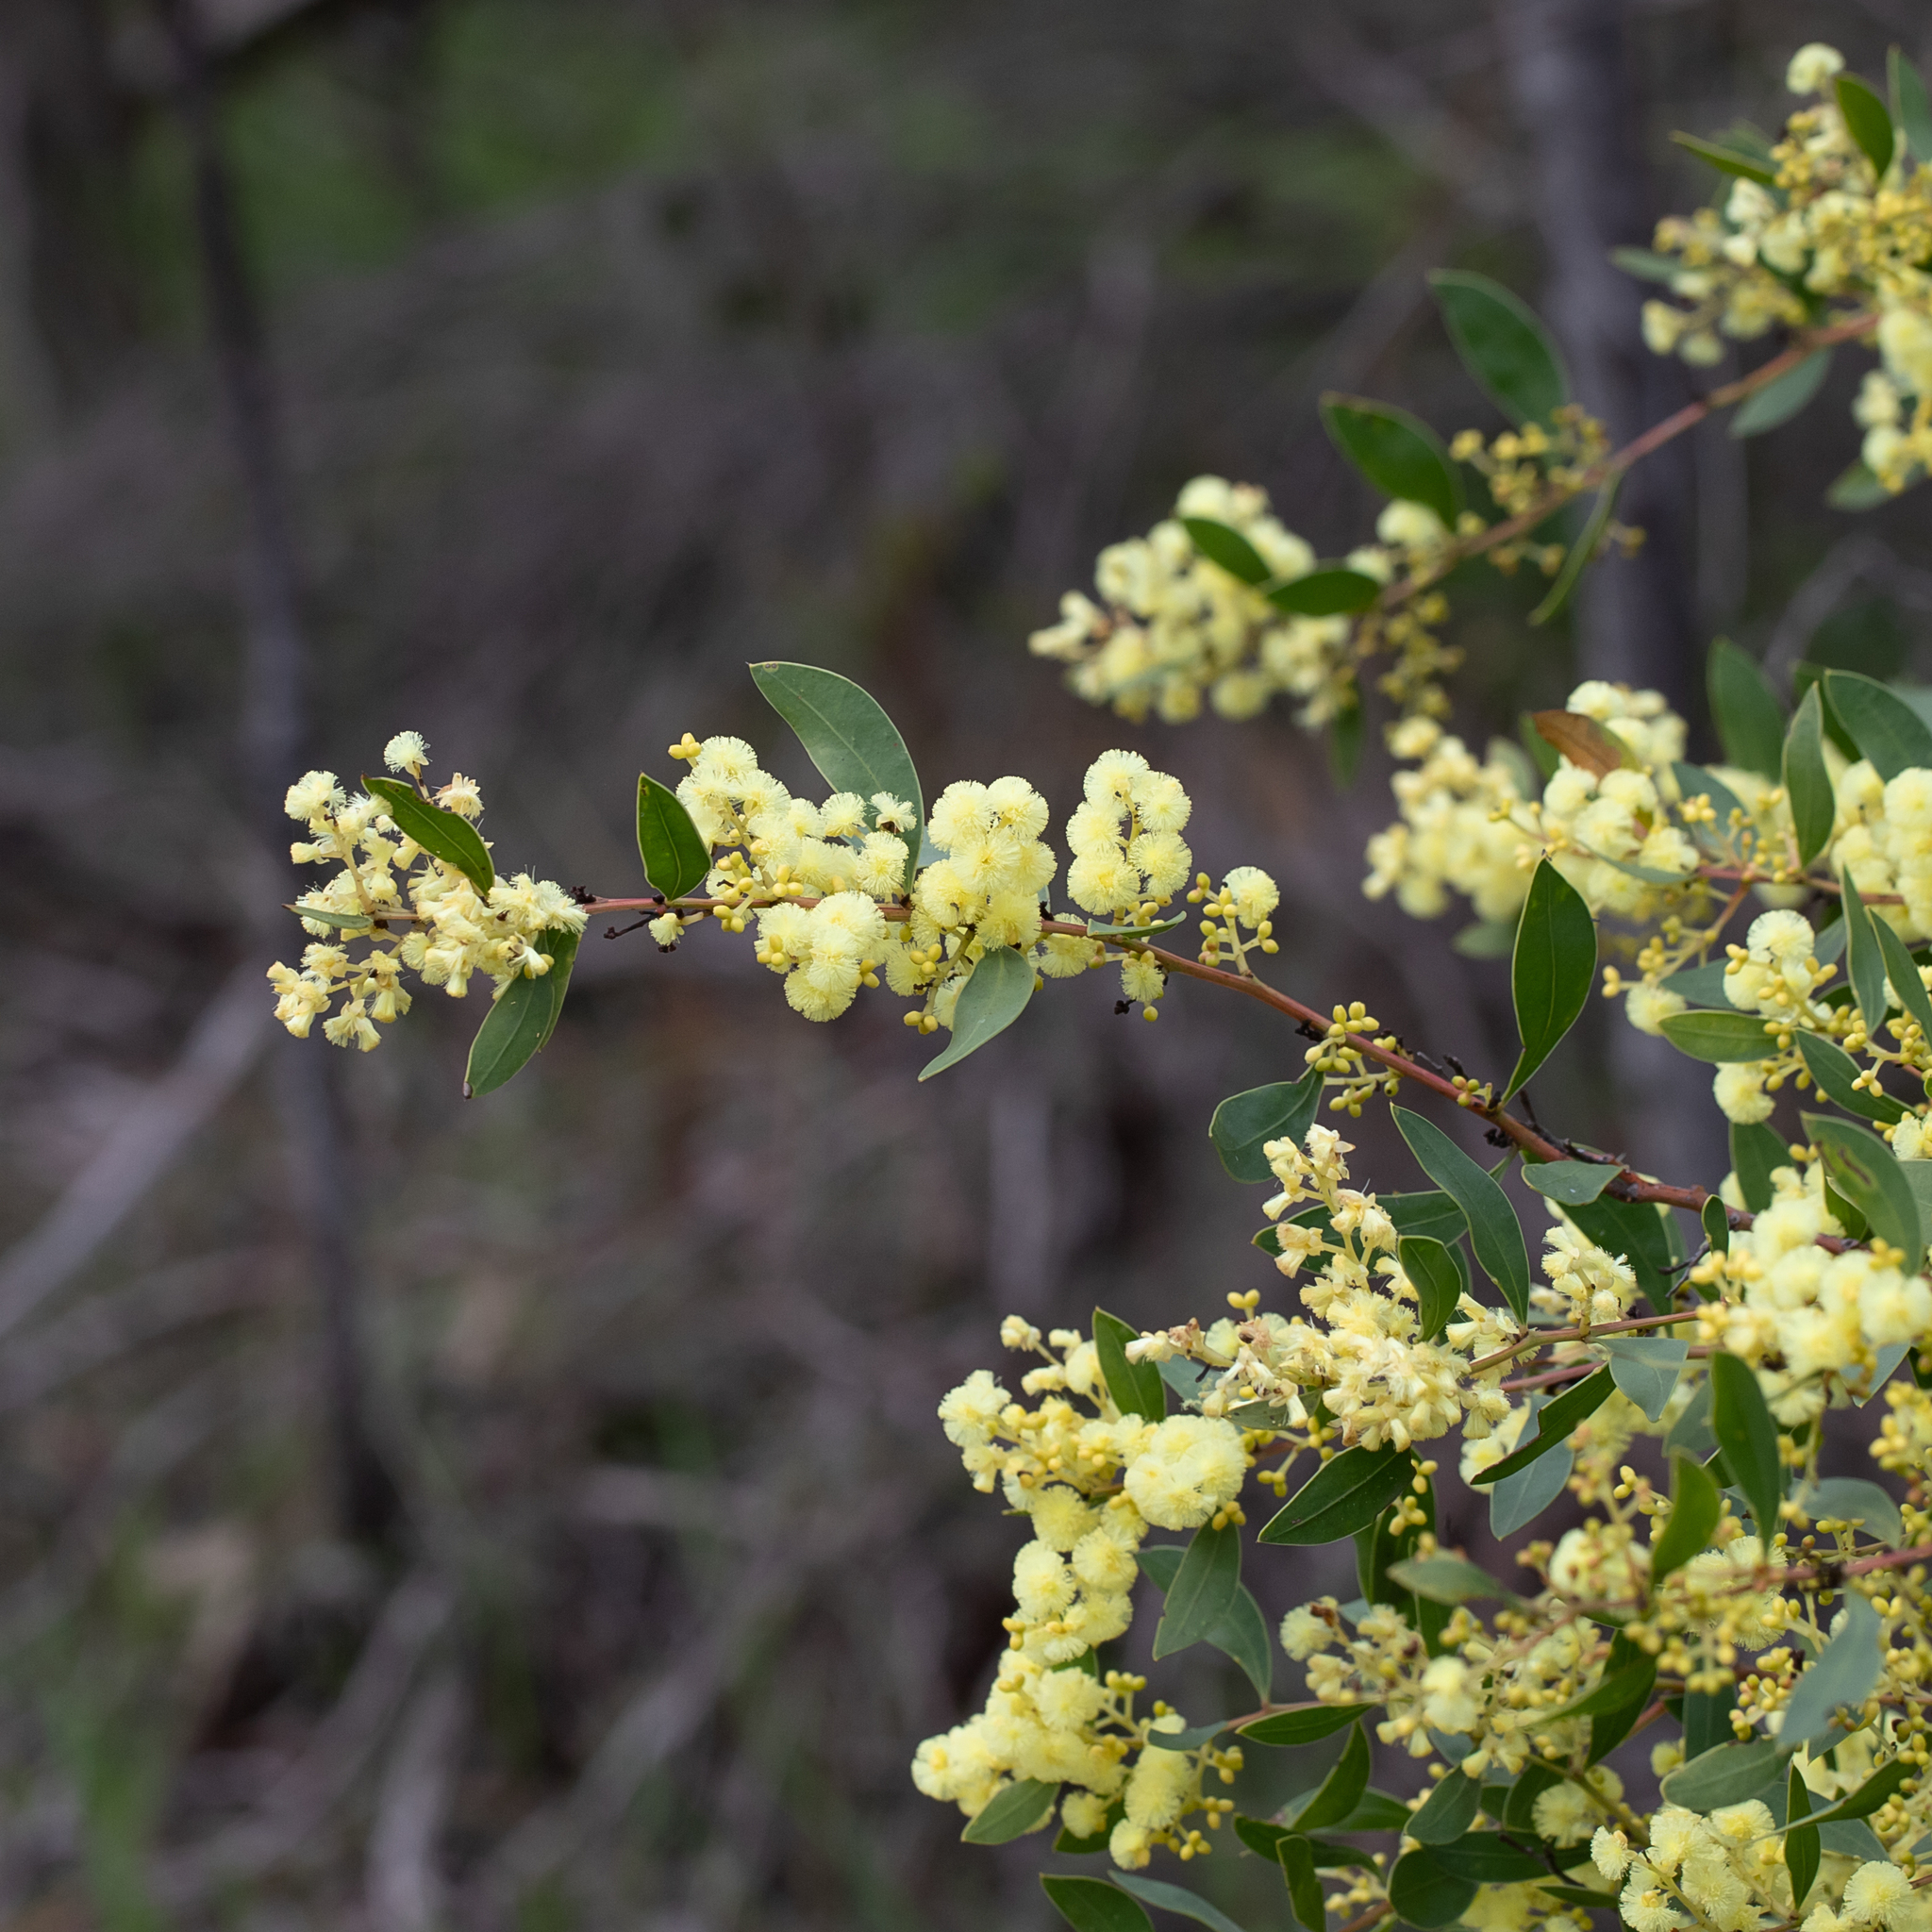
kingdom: Plantae
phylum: Tracheophyta
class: Magnoliopsida
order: Fabales
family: Fabaceae
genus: Acacia
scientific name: Acacia myrtifolia
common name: Myrtle wattle
